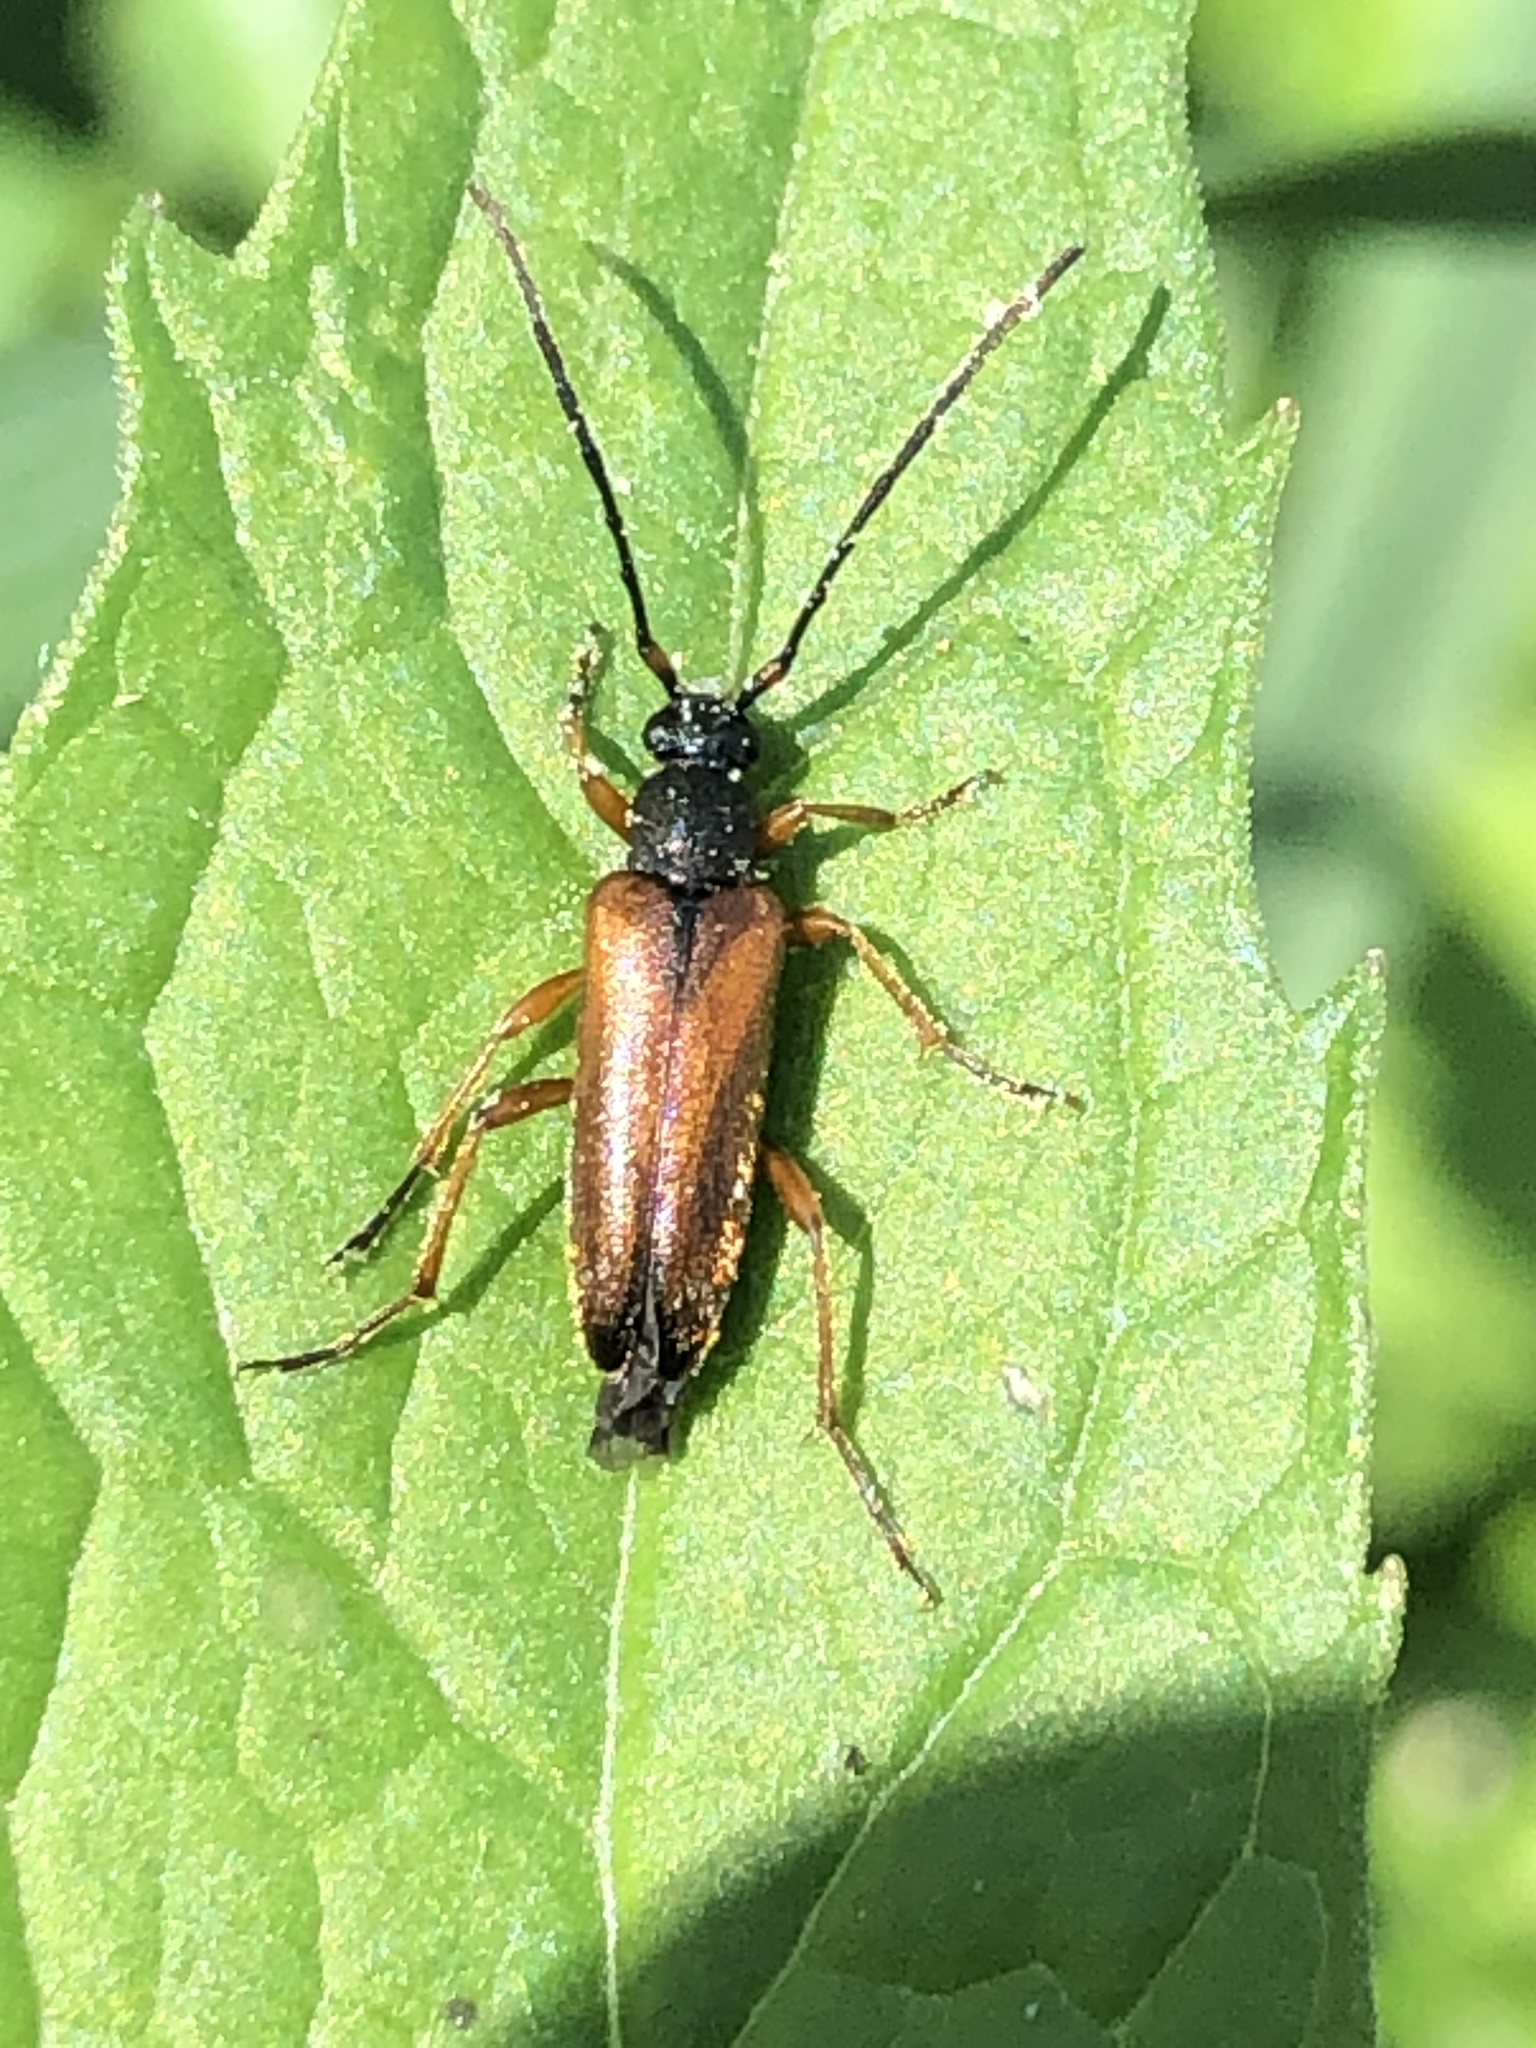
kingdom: Animalia
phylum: Arthropoda
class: Insecta
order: Coleoptera
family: Cerambycidae
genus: Alosterna
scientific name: Alosterna tabacicolor
